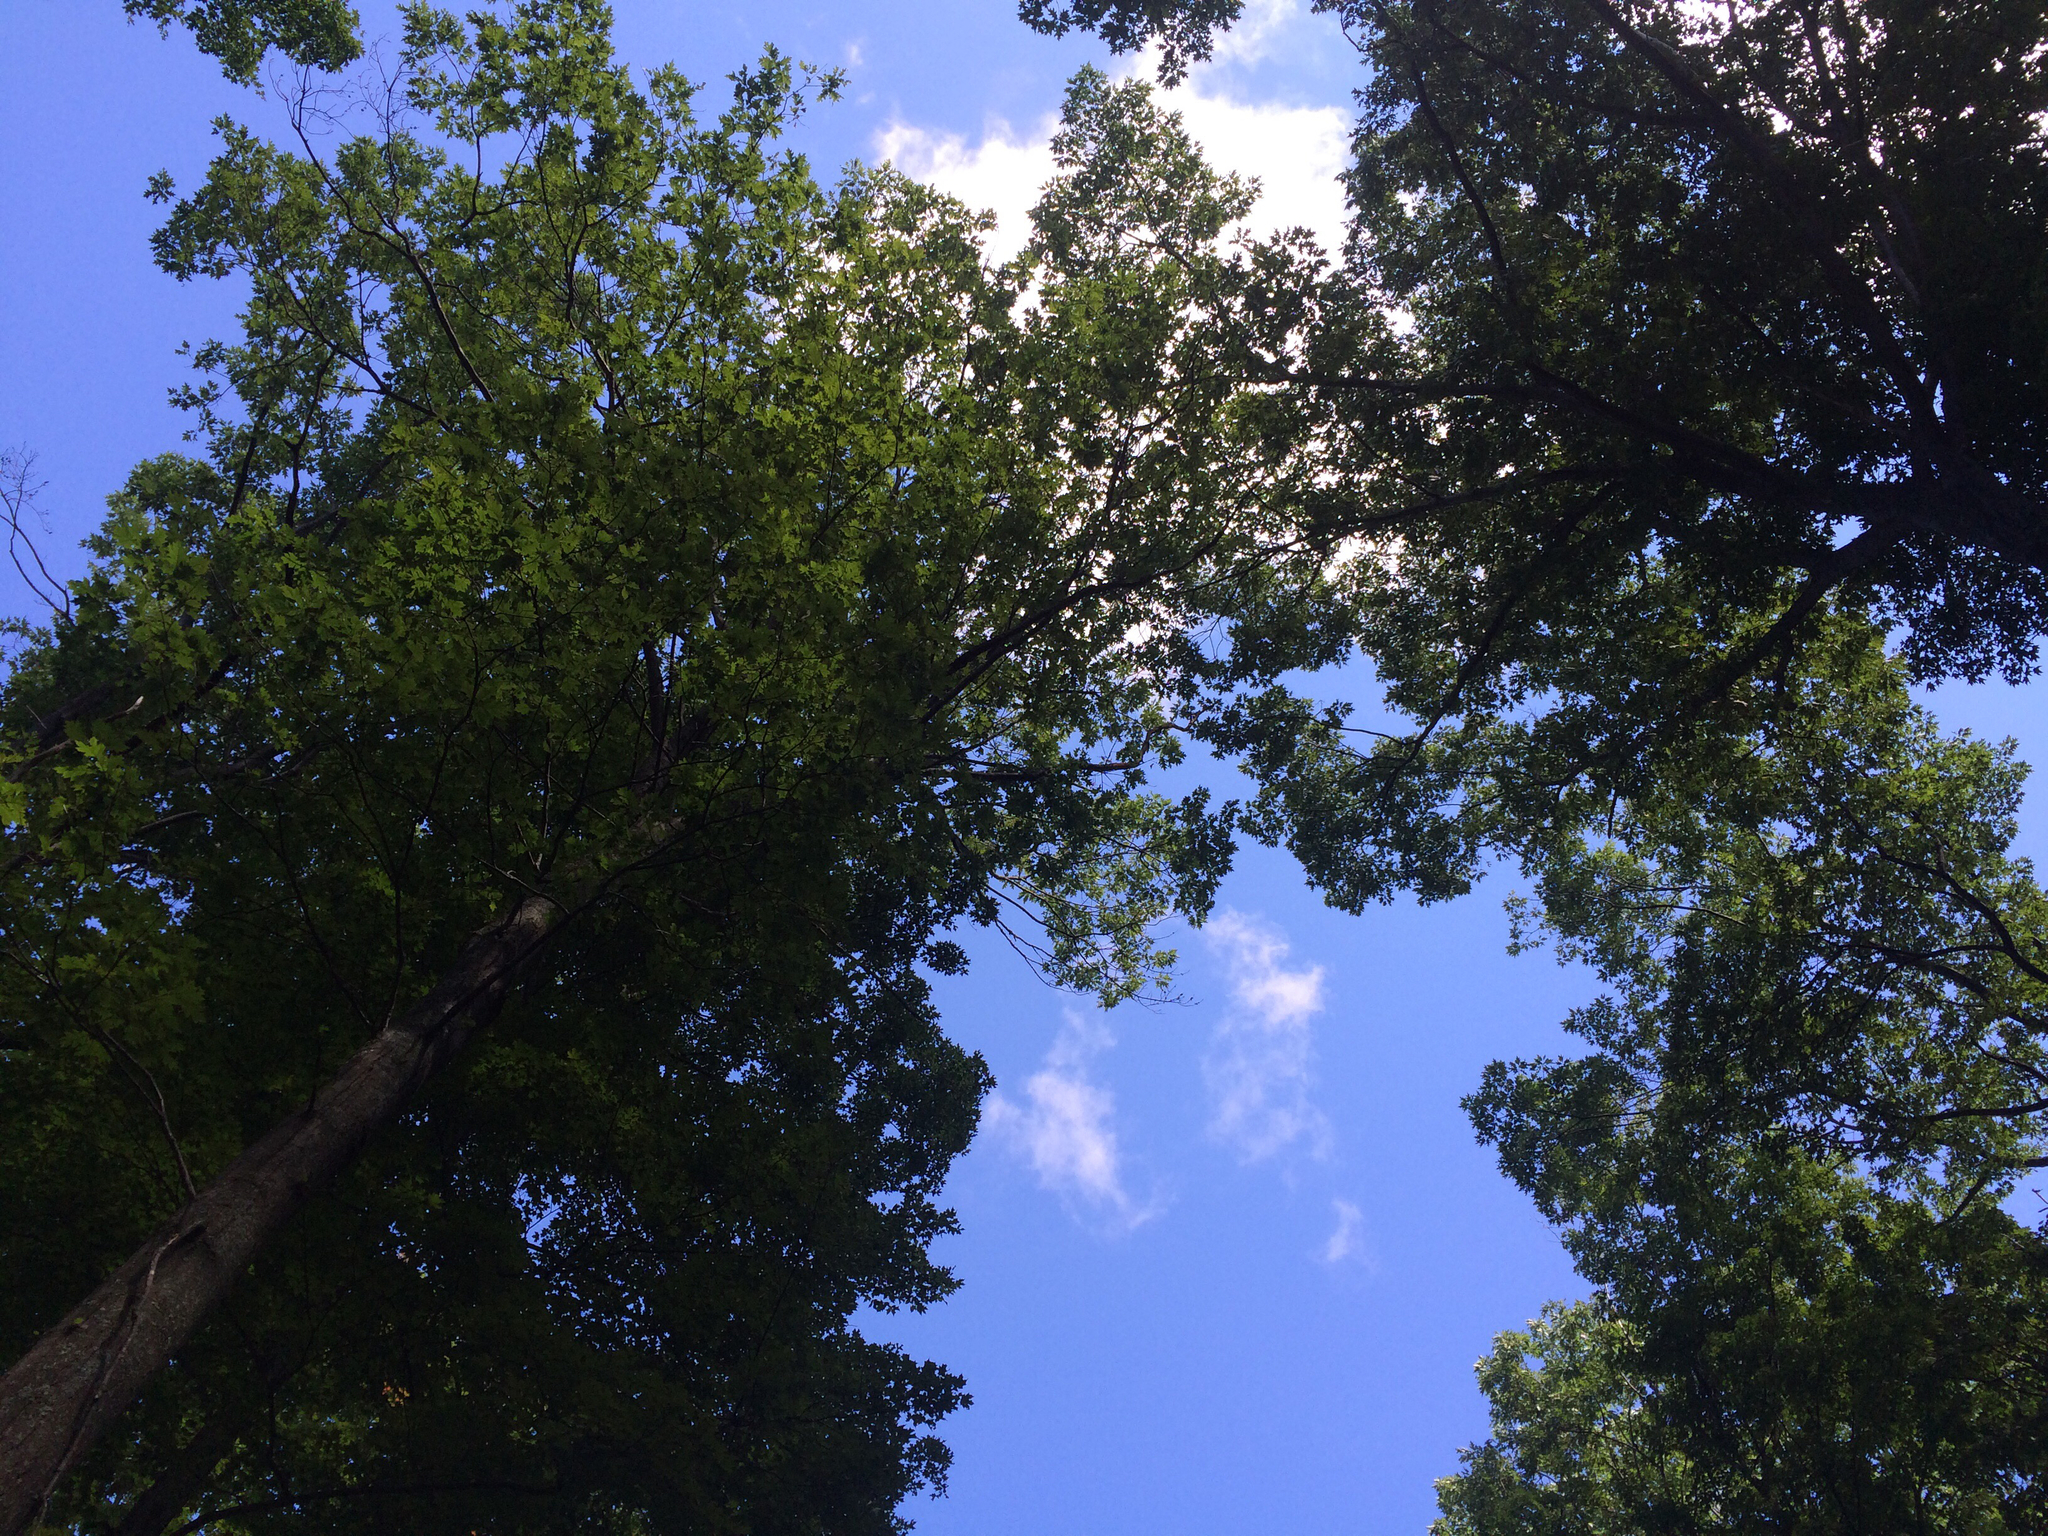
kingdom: Plantae
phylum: Tracheophyta
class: Magnoliopsida
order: Fagales
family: Fagaceae
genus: Quercus
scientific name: Quercus rubra
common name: Red oak
